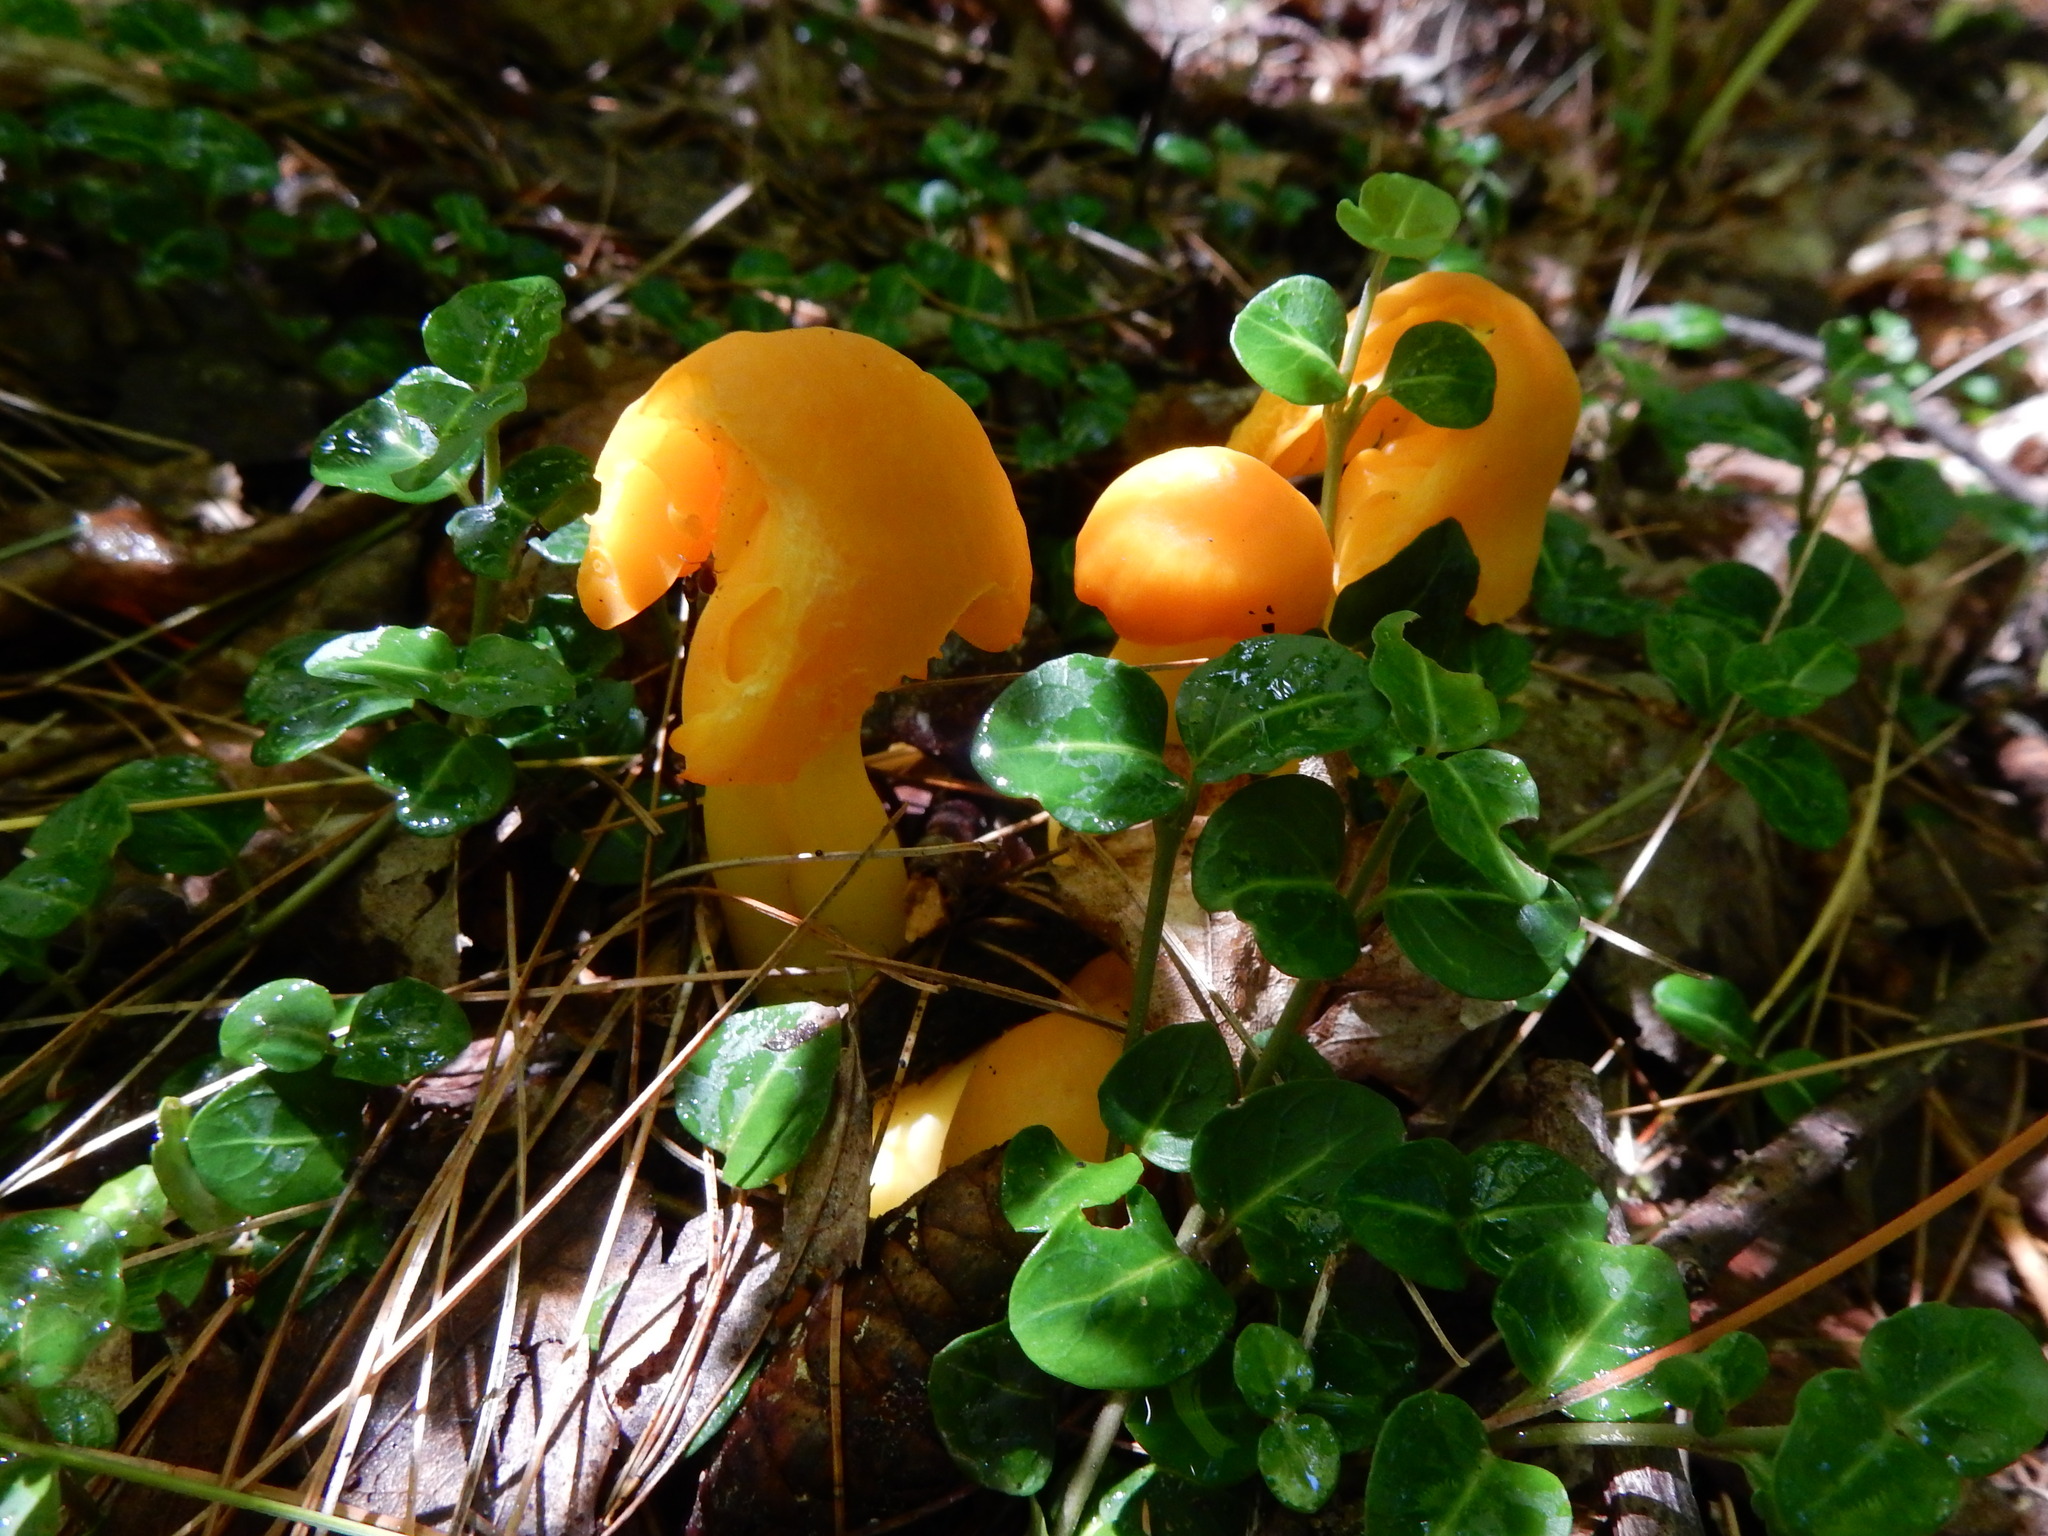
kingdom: Fungi
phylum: Basidiomycota
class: Agaricomycetes
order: Agaricales
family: Hygrophoraceae
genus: Humidicutis
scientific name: Humidicutis marginata
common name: Orange gilled waxcap
